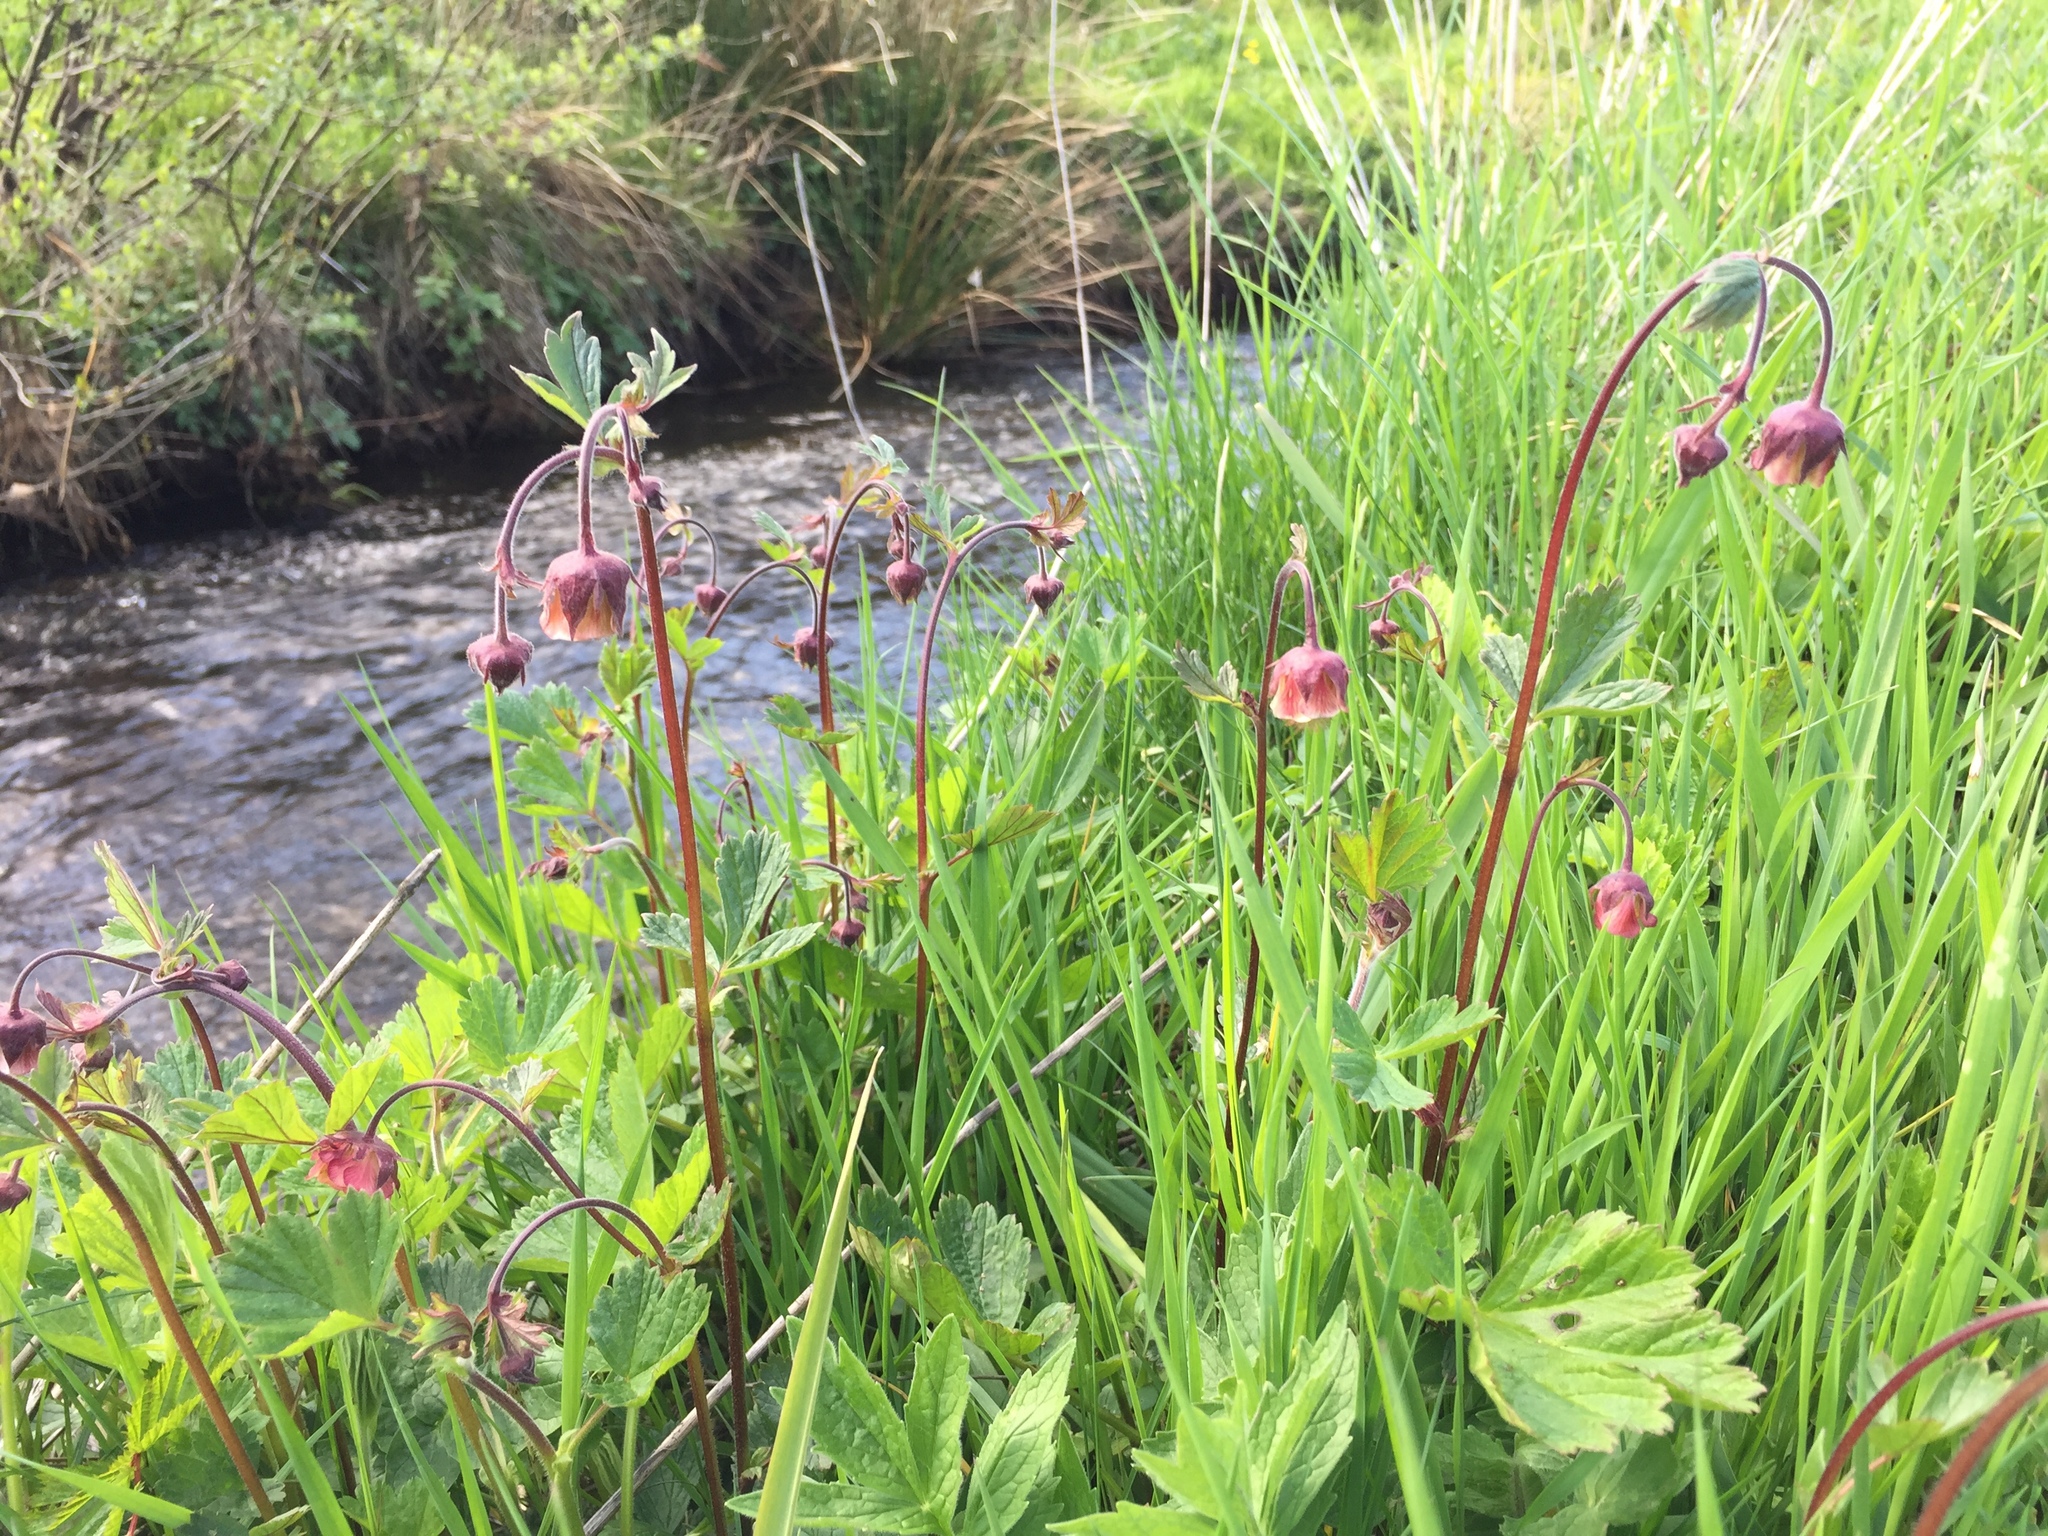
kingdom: Plantae
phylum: Tracheophyta
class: Magnoliopsida
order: Rosales
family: Rosaceae
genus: Geum
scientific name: Geum rivale
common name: Water avens
